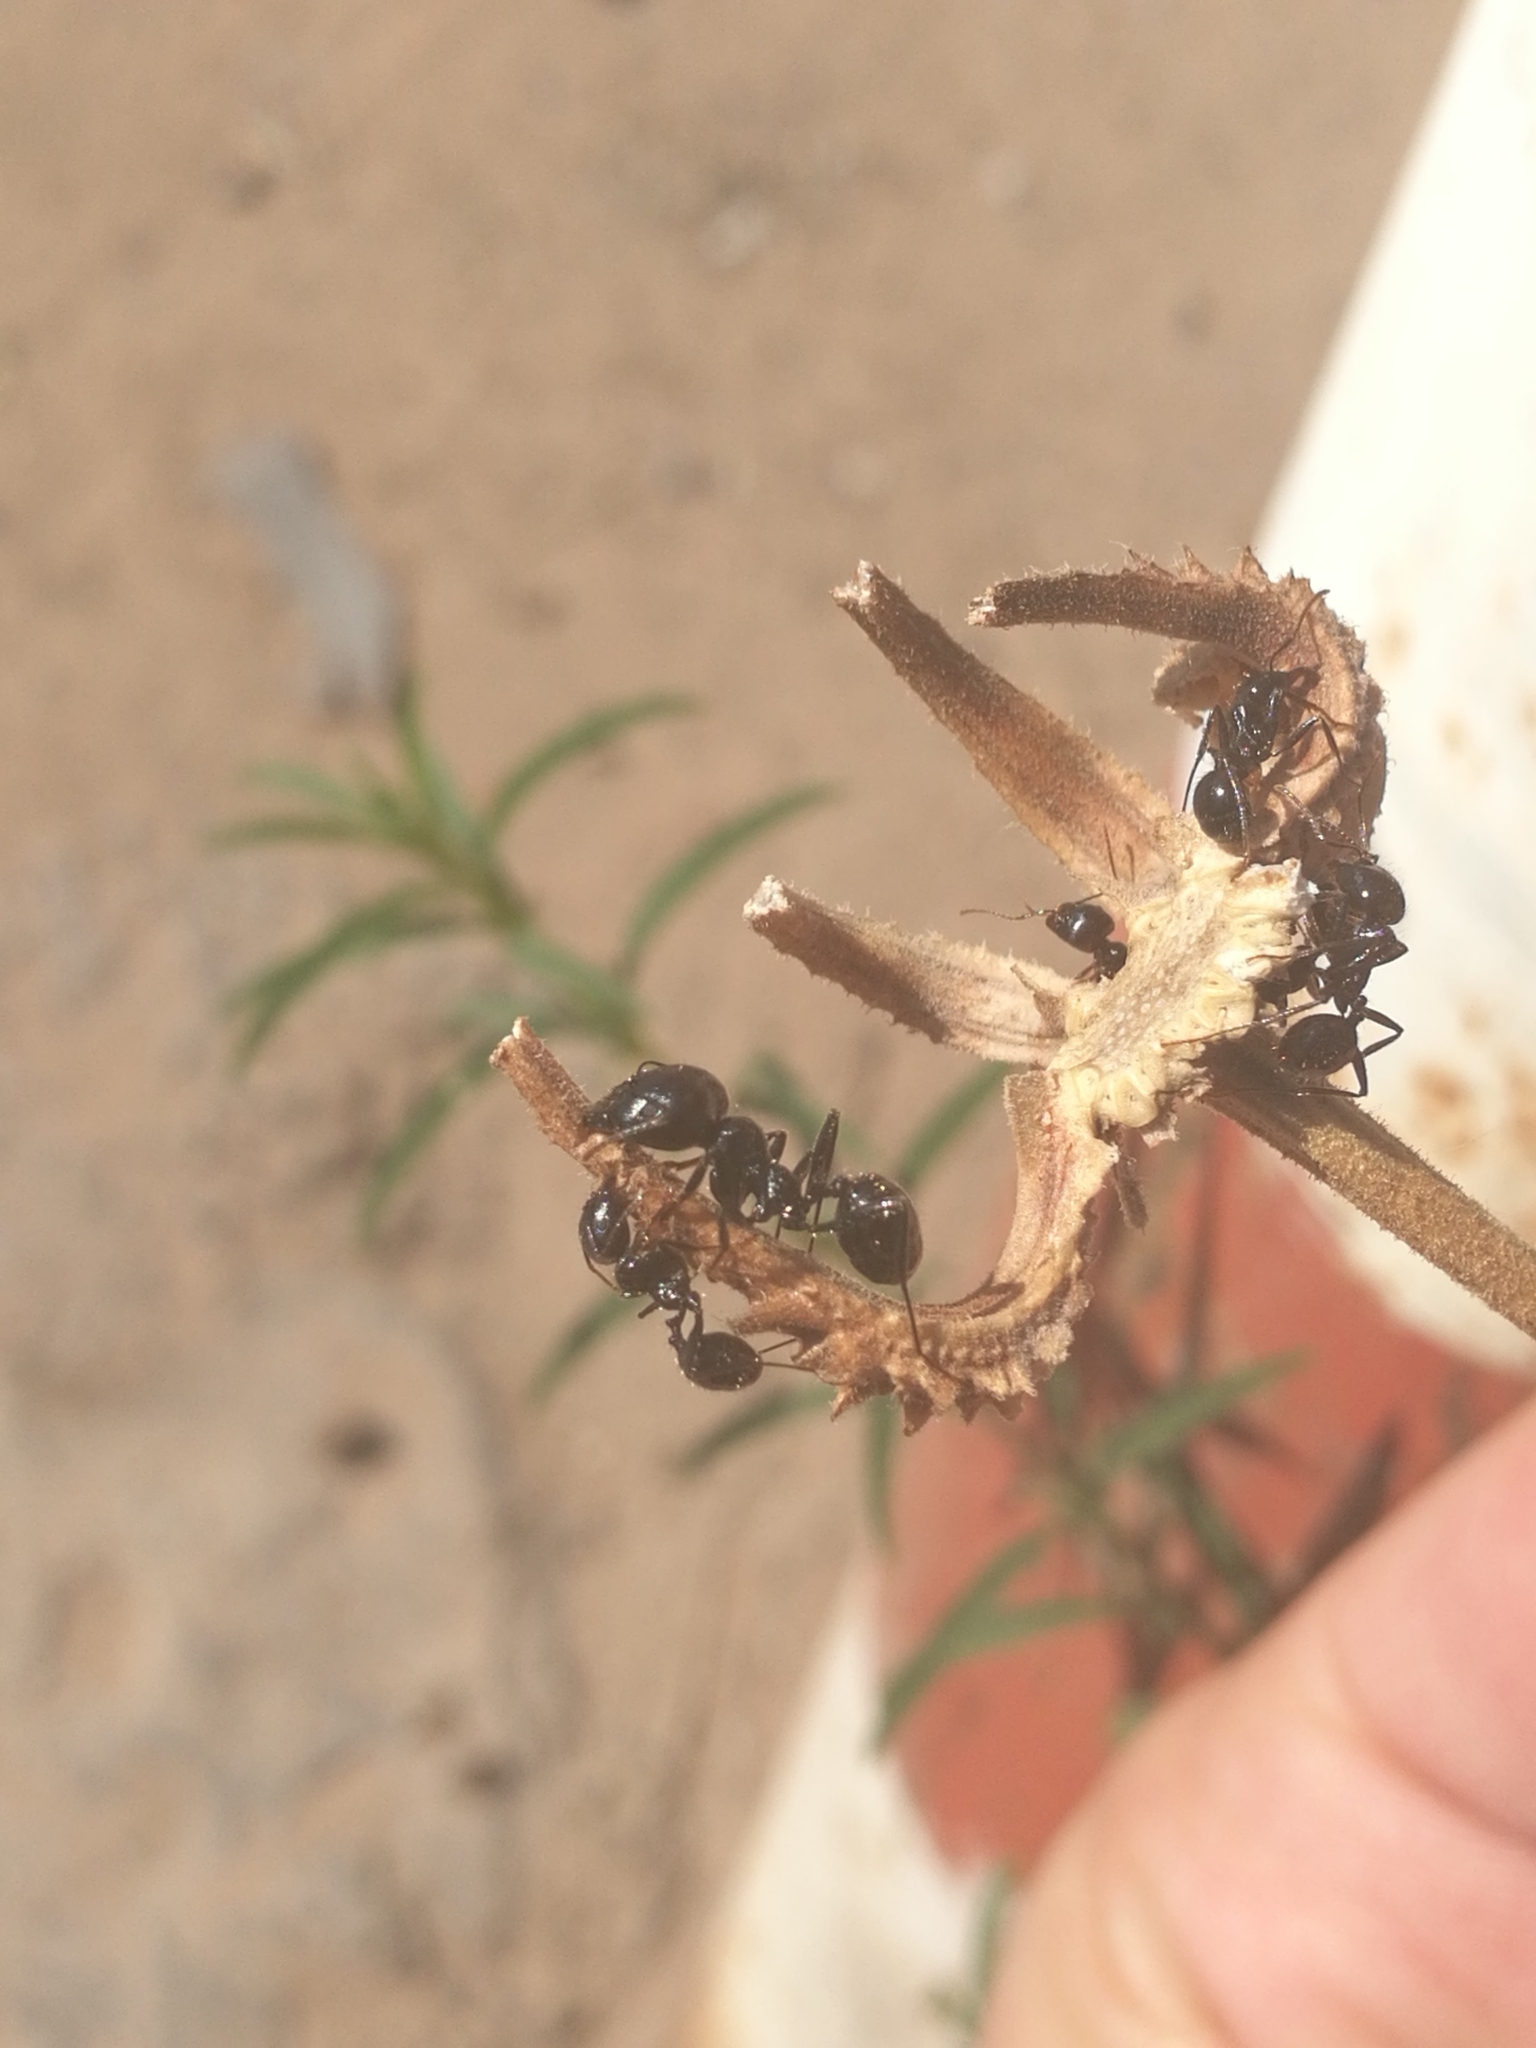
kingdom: Animalia
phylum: Arthropoda
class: Insecta
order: Hymenoptera
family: Formicidae
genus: Messor
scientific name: Messor barbarus
